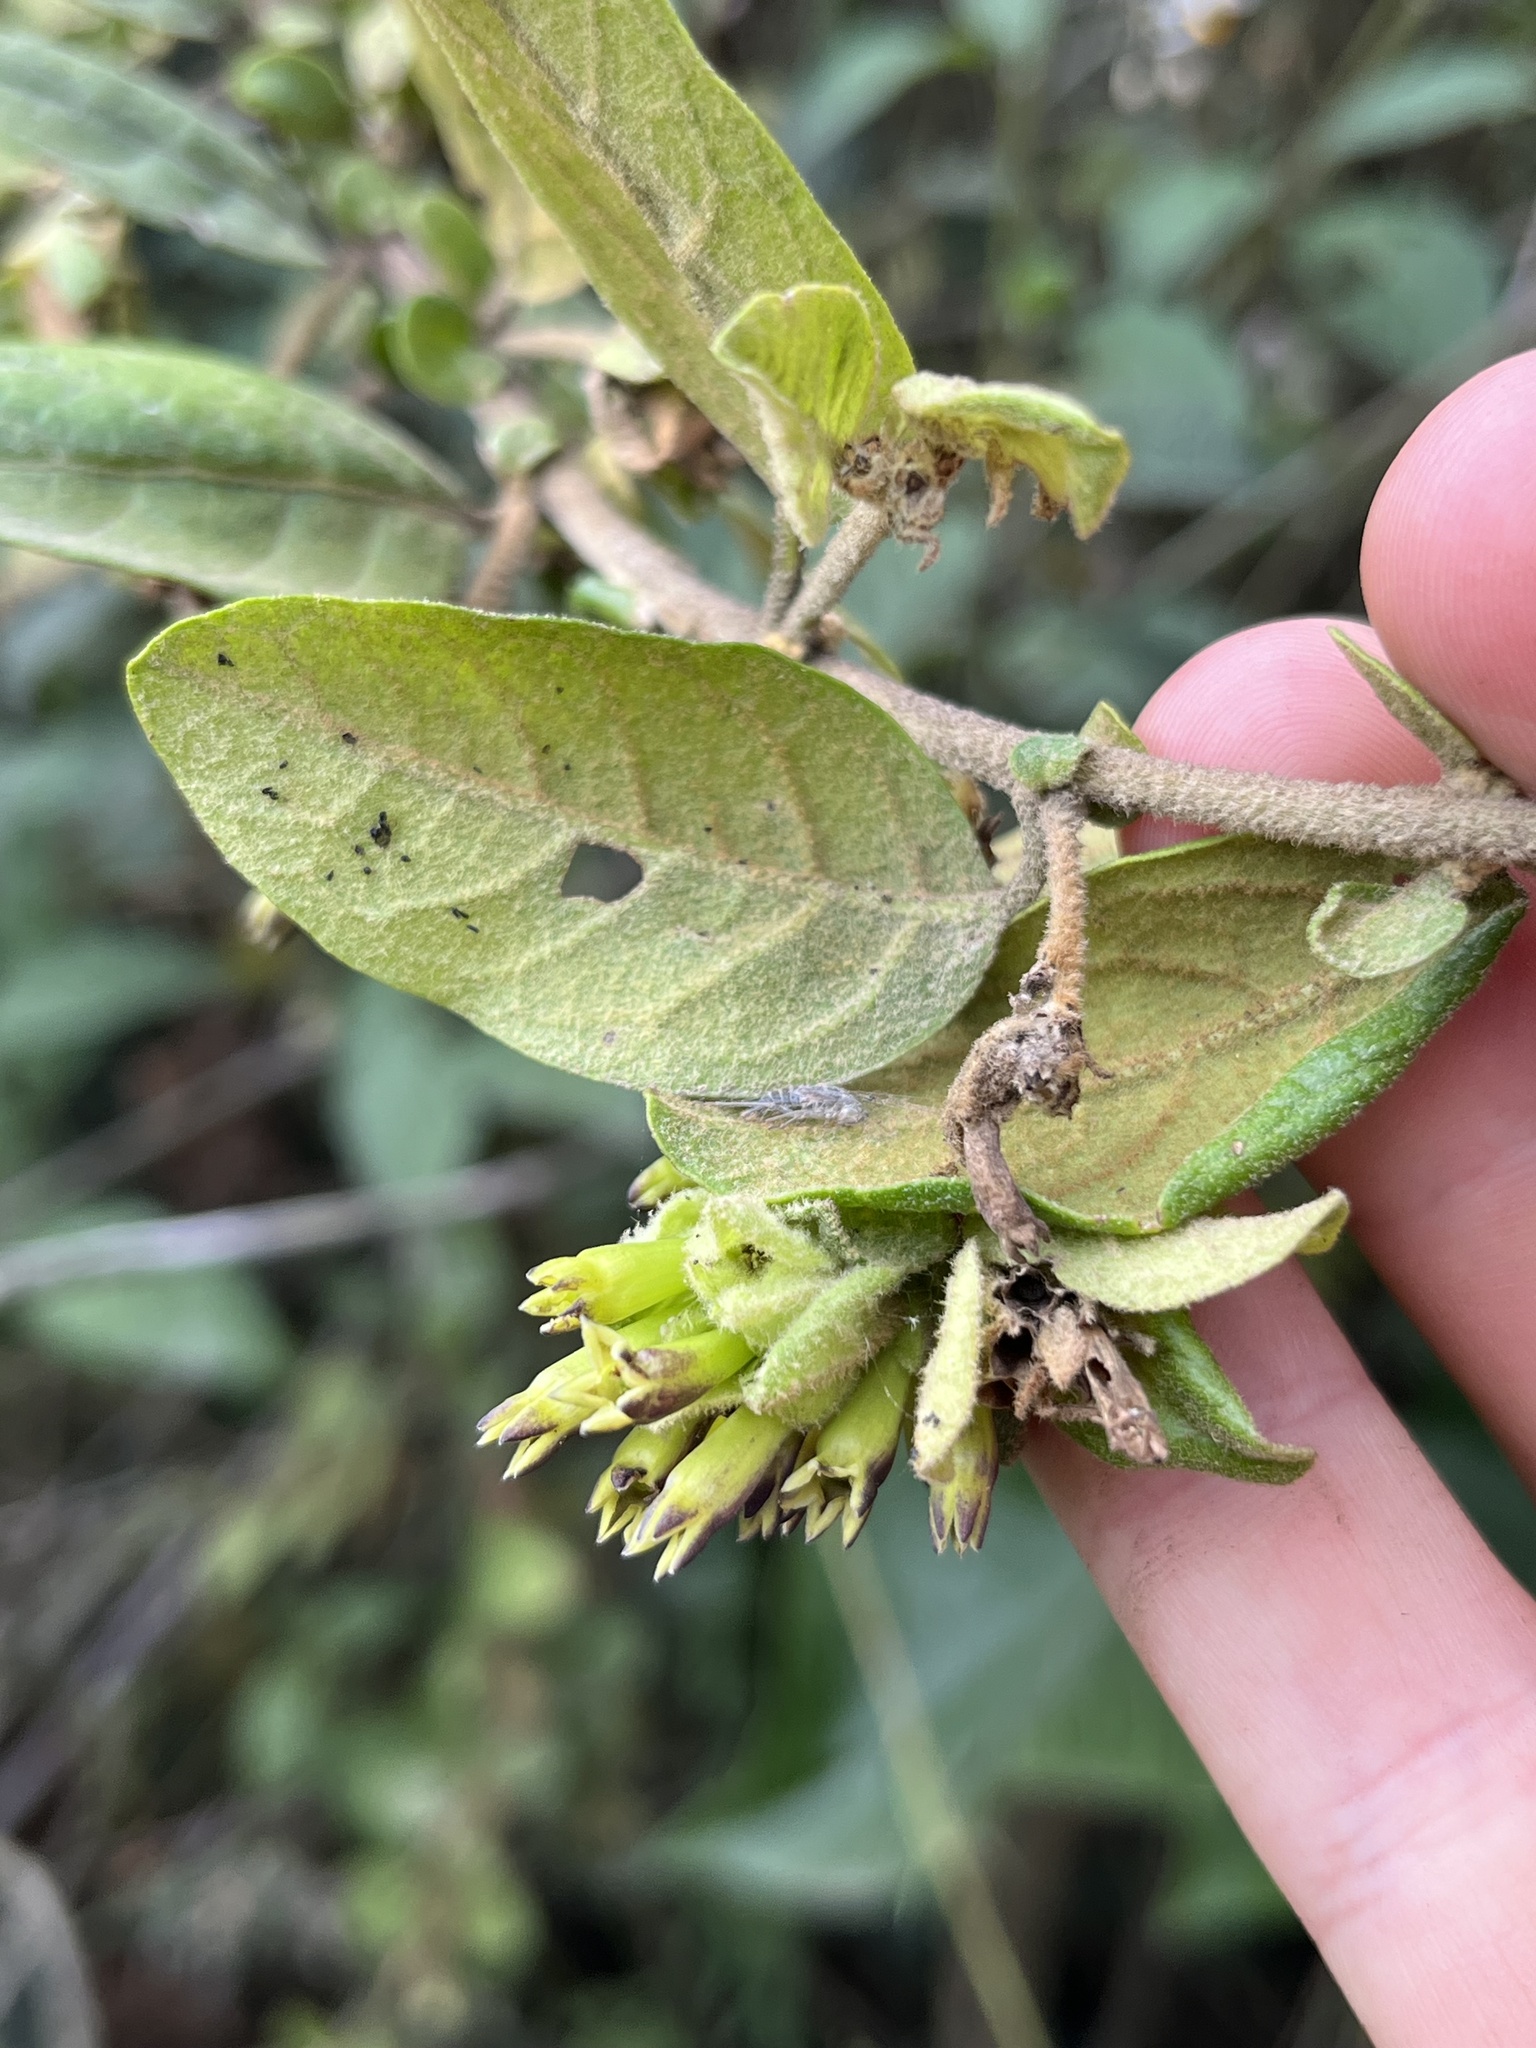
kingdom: Plantae
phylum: Tracheophyta
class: Magnoliopsida
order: Solanales
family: Solanaceae
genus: Cestrum
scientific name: Cestrum tomentosum
